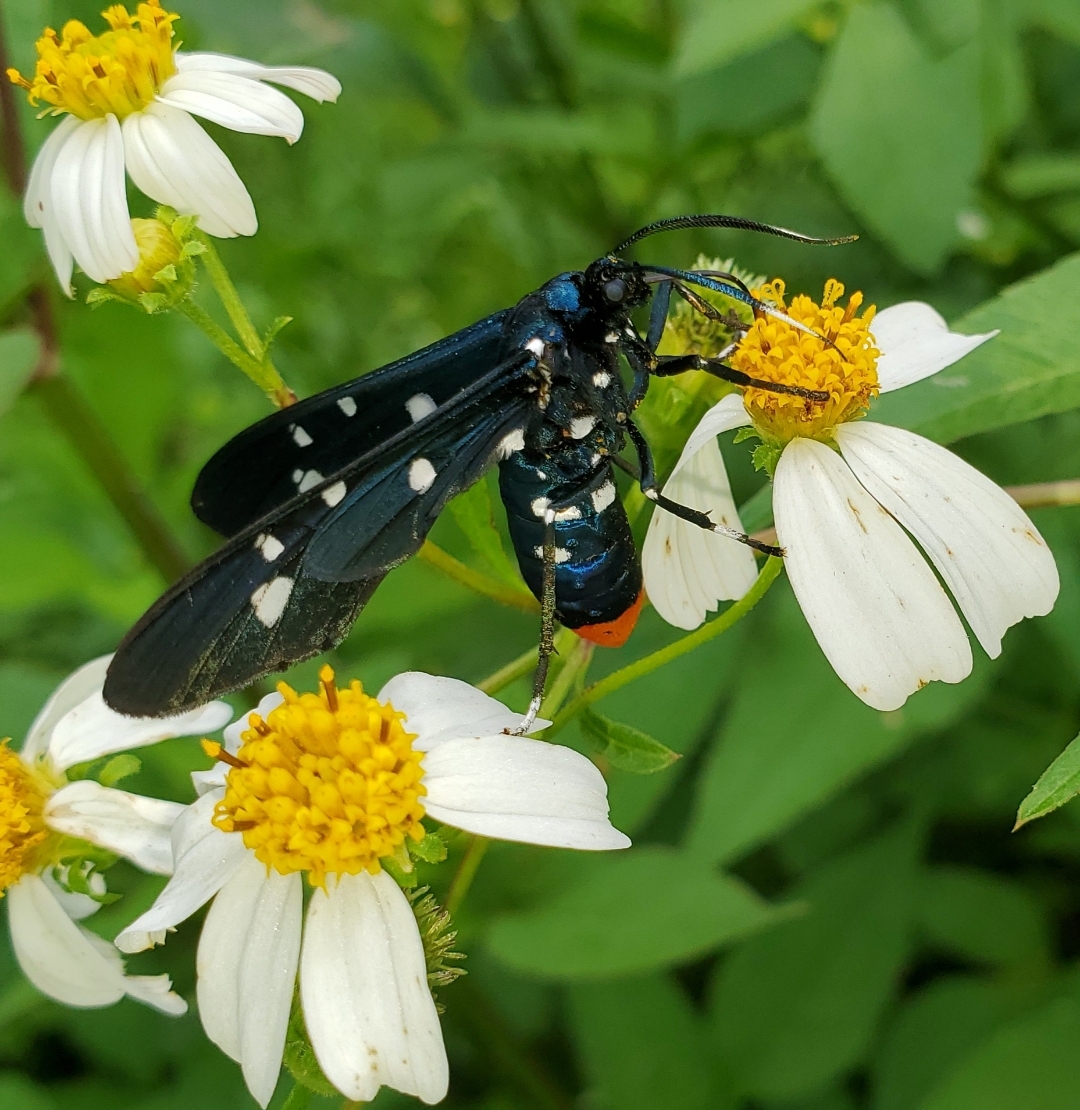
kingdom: Animalia
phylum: Arthropoda
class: Insecta
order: Lepidoptera
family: Erebidae
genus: Syntomeida
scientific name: Syntomeida epilais
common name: Polka-dot wasp moth
